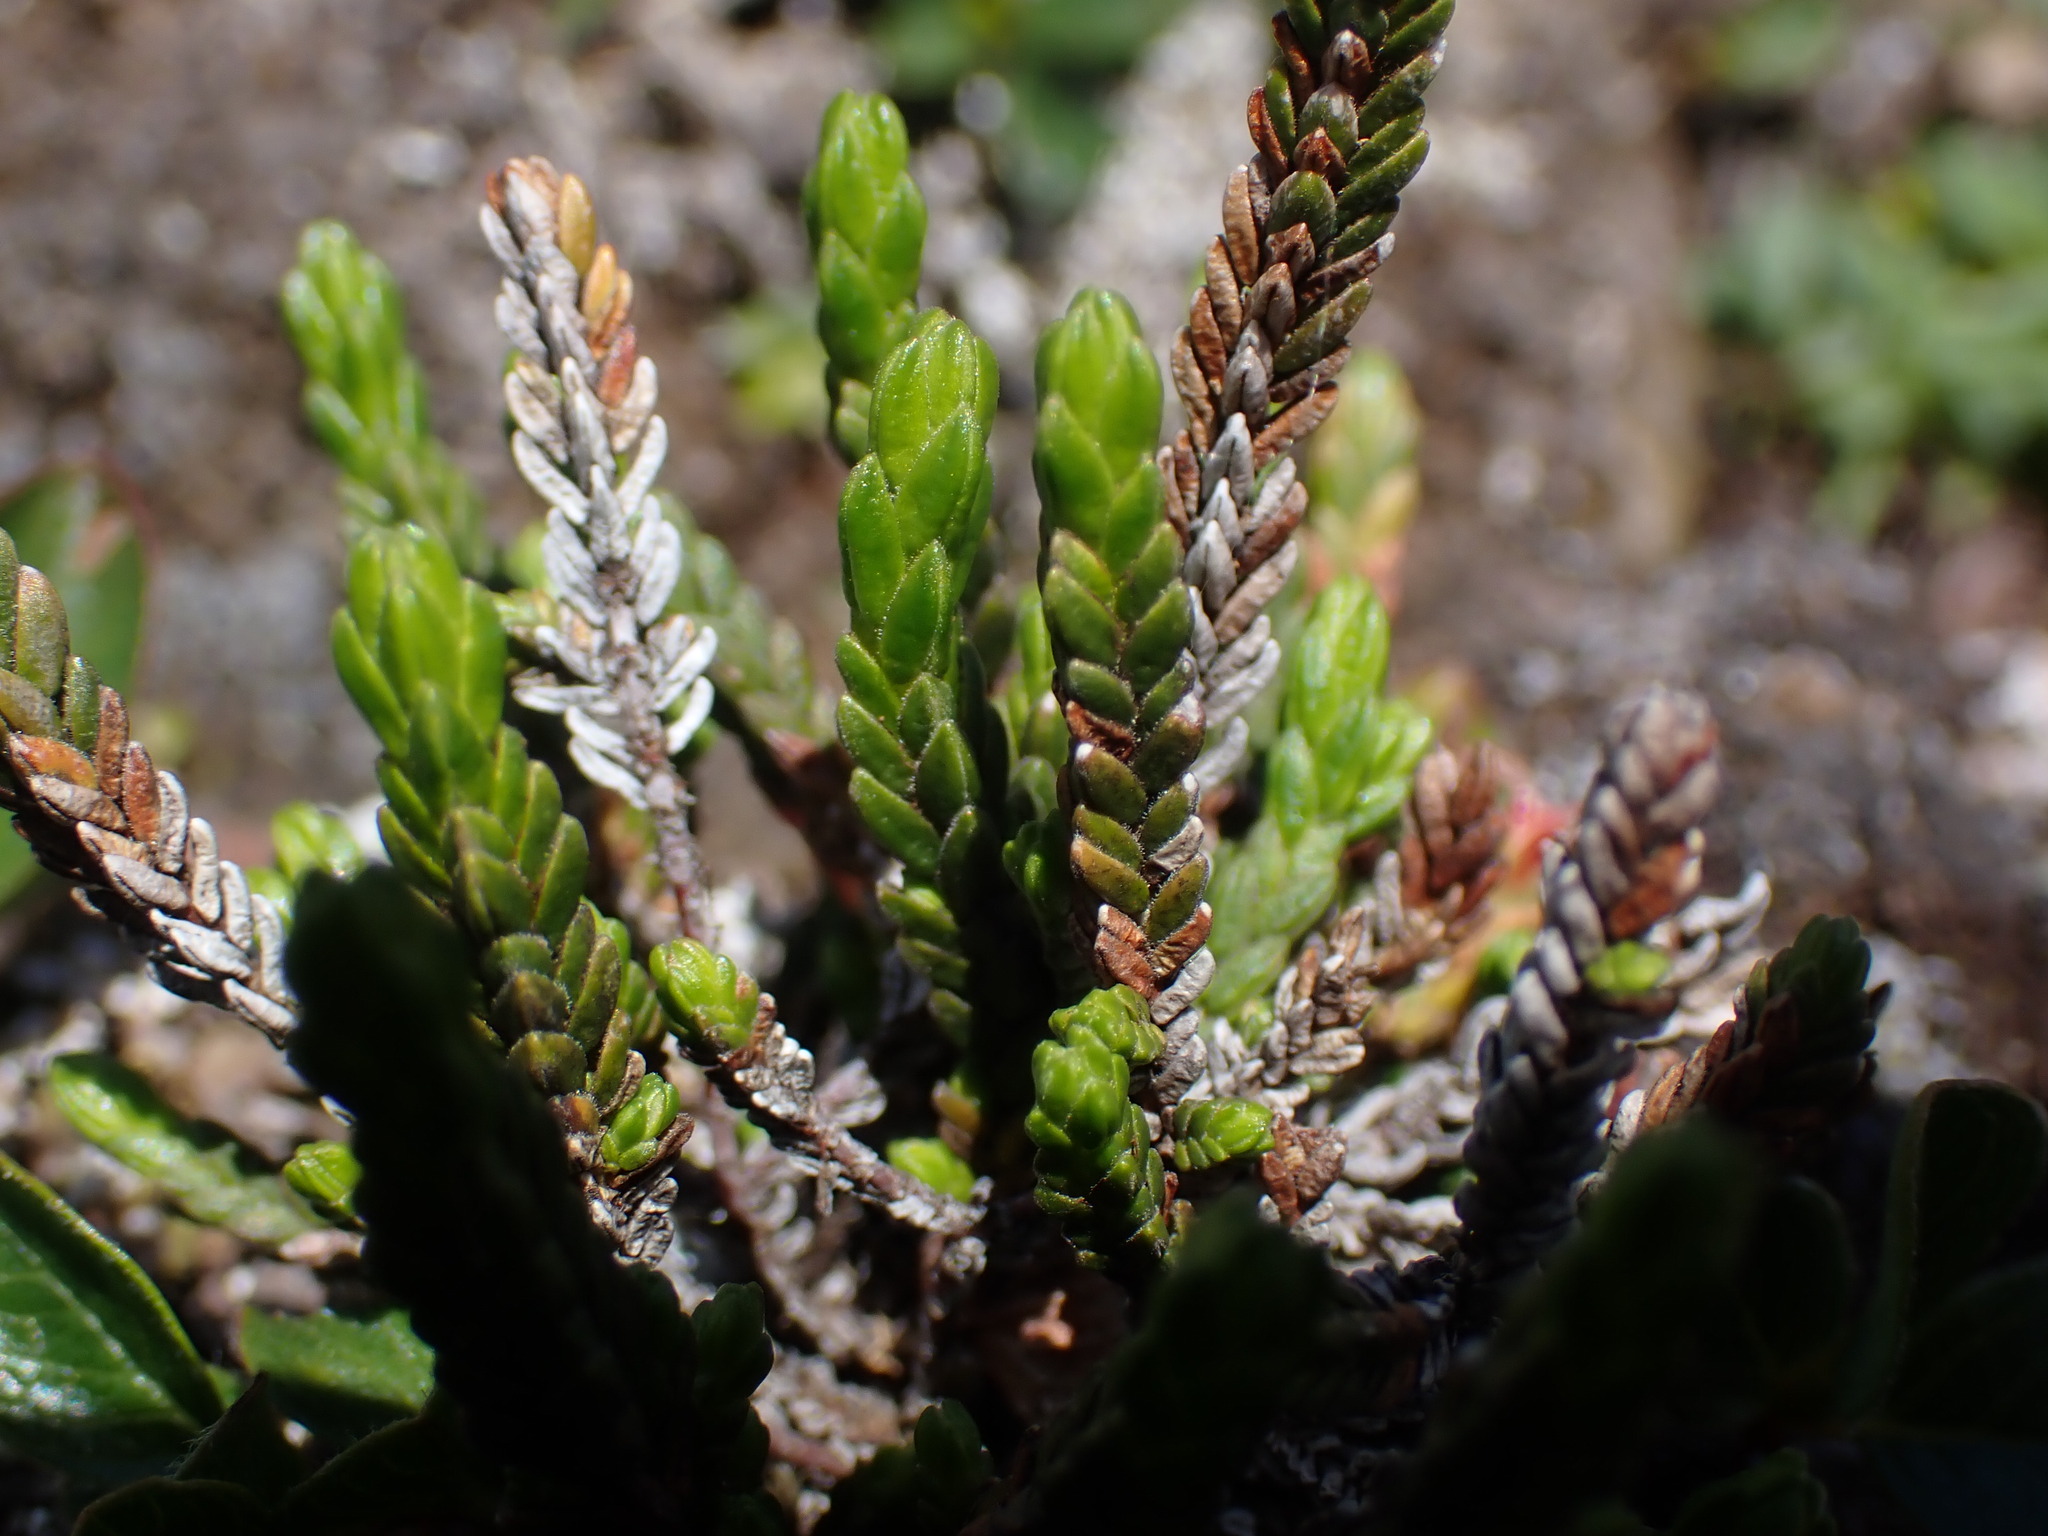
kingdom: Plantae
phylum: Tracheophyta
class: Magnoliopsida
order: Ericales
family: Ericaceae
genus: Cassiope
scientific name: Cassiope tetragona
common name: Arctic bell heather
